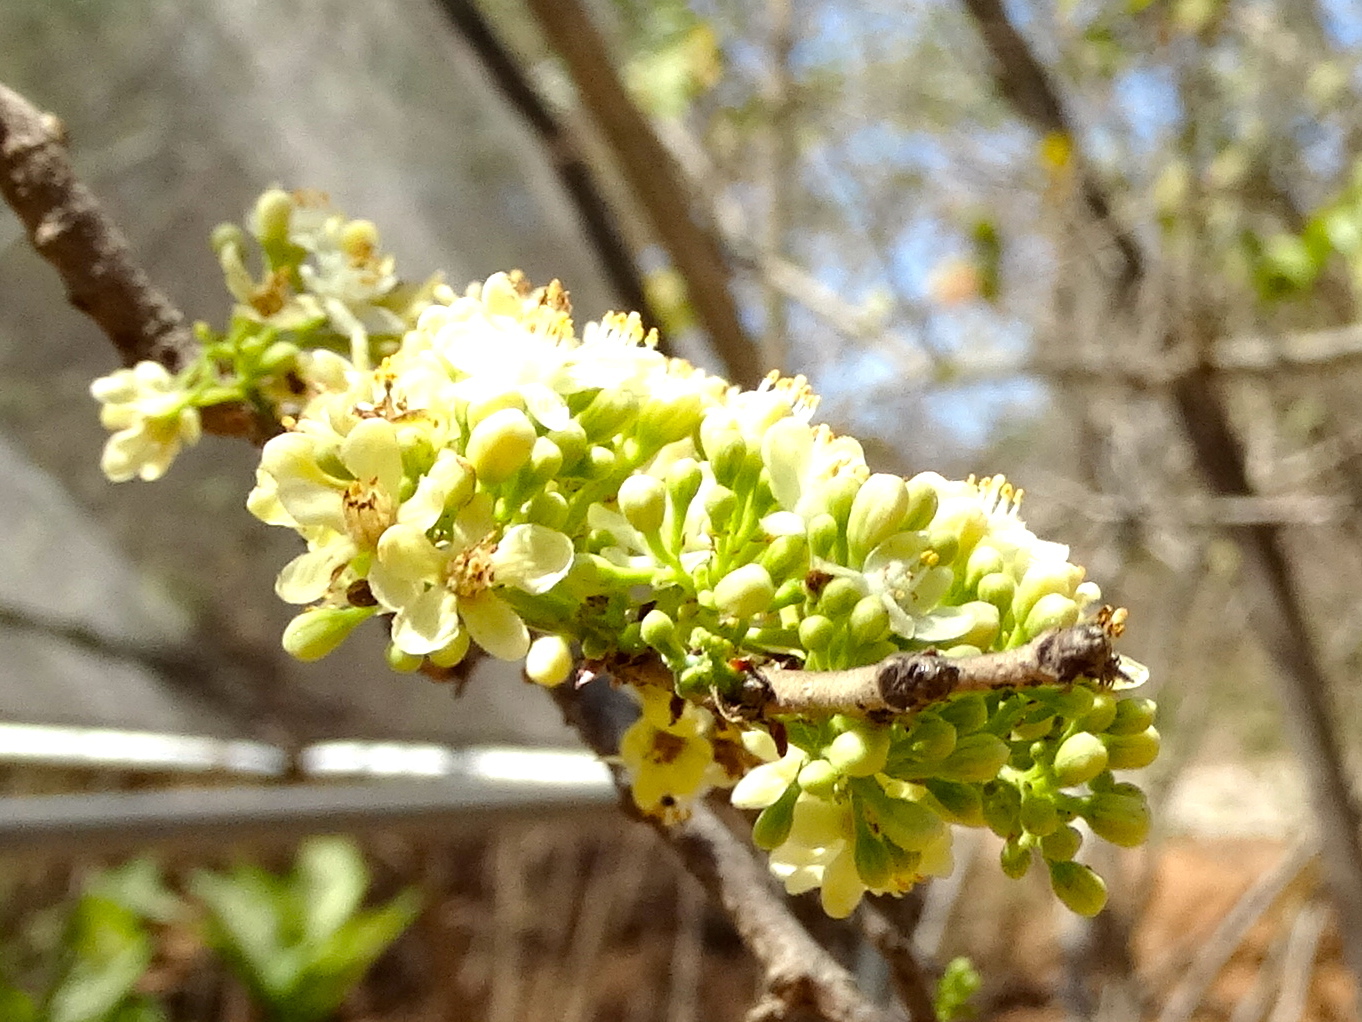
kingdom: Plantae
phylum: Tracheophyta
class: Magnoliopsida
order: Malpighiales
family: Salicaceae
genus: Casearia
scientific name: Casearia nitida
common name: Smooth honeytree
